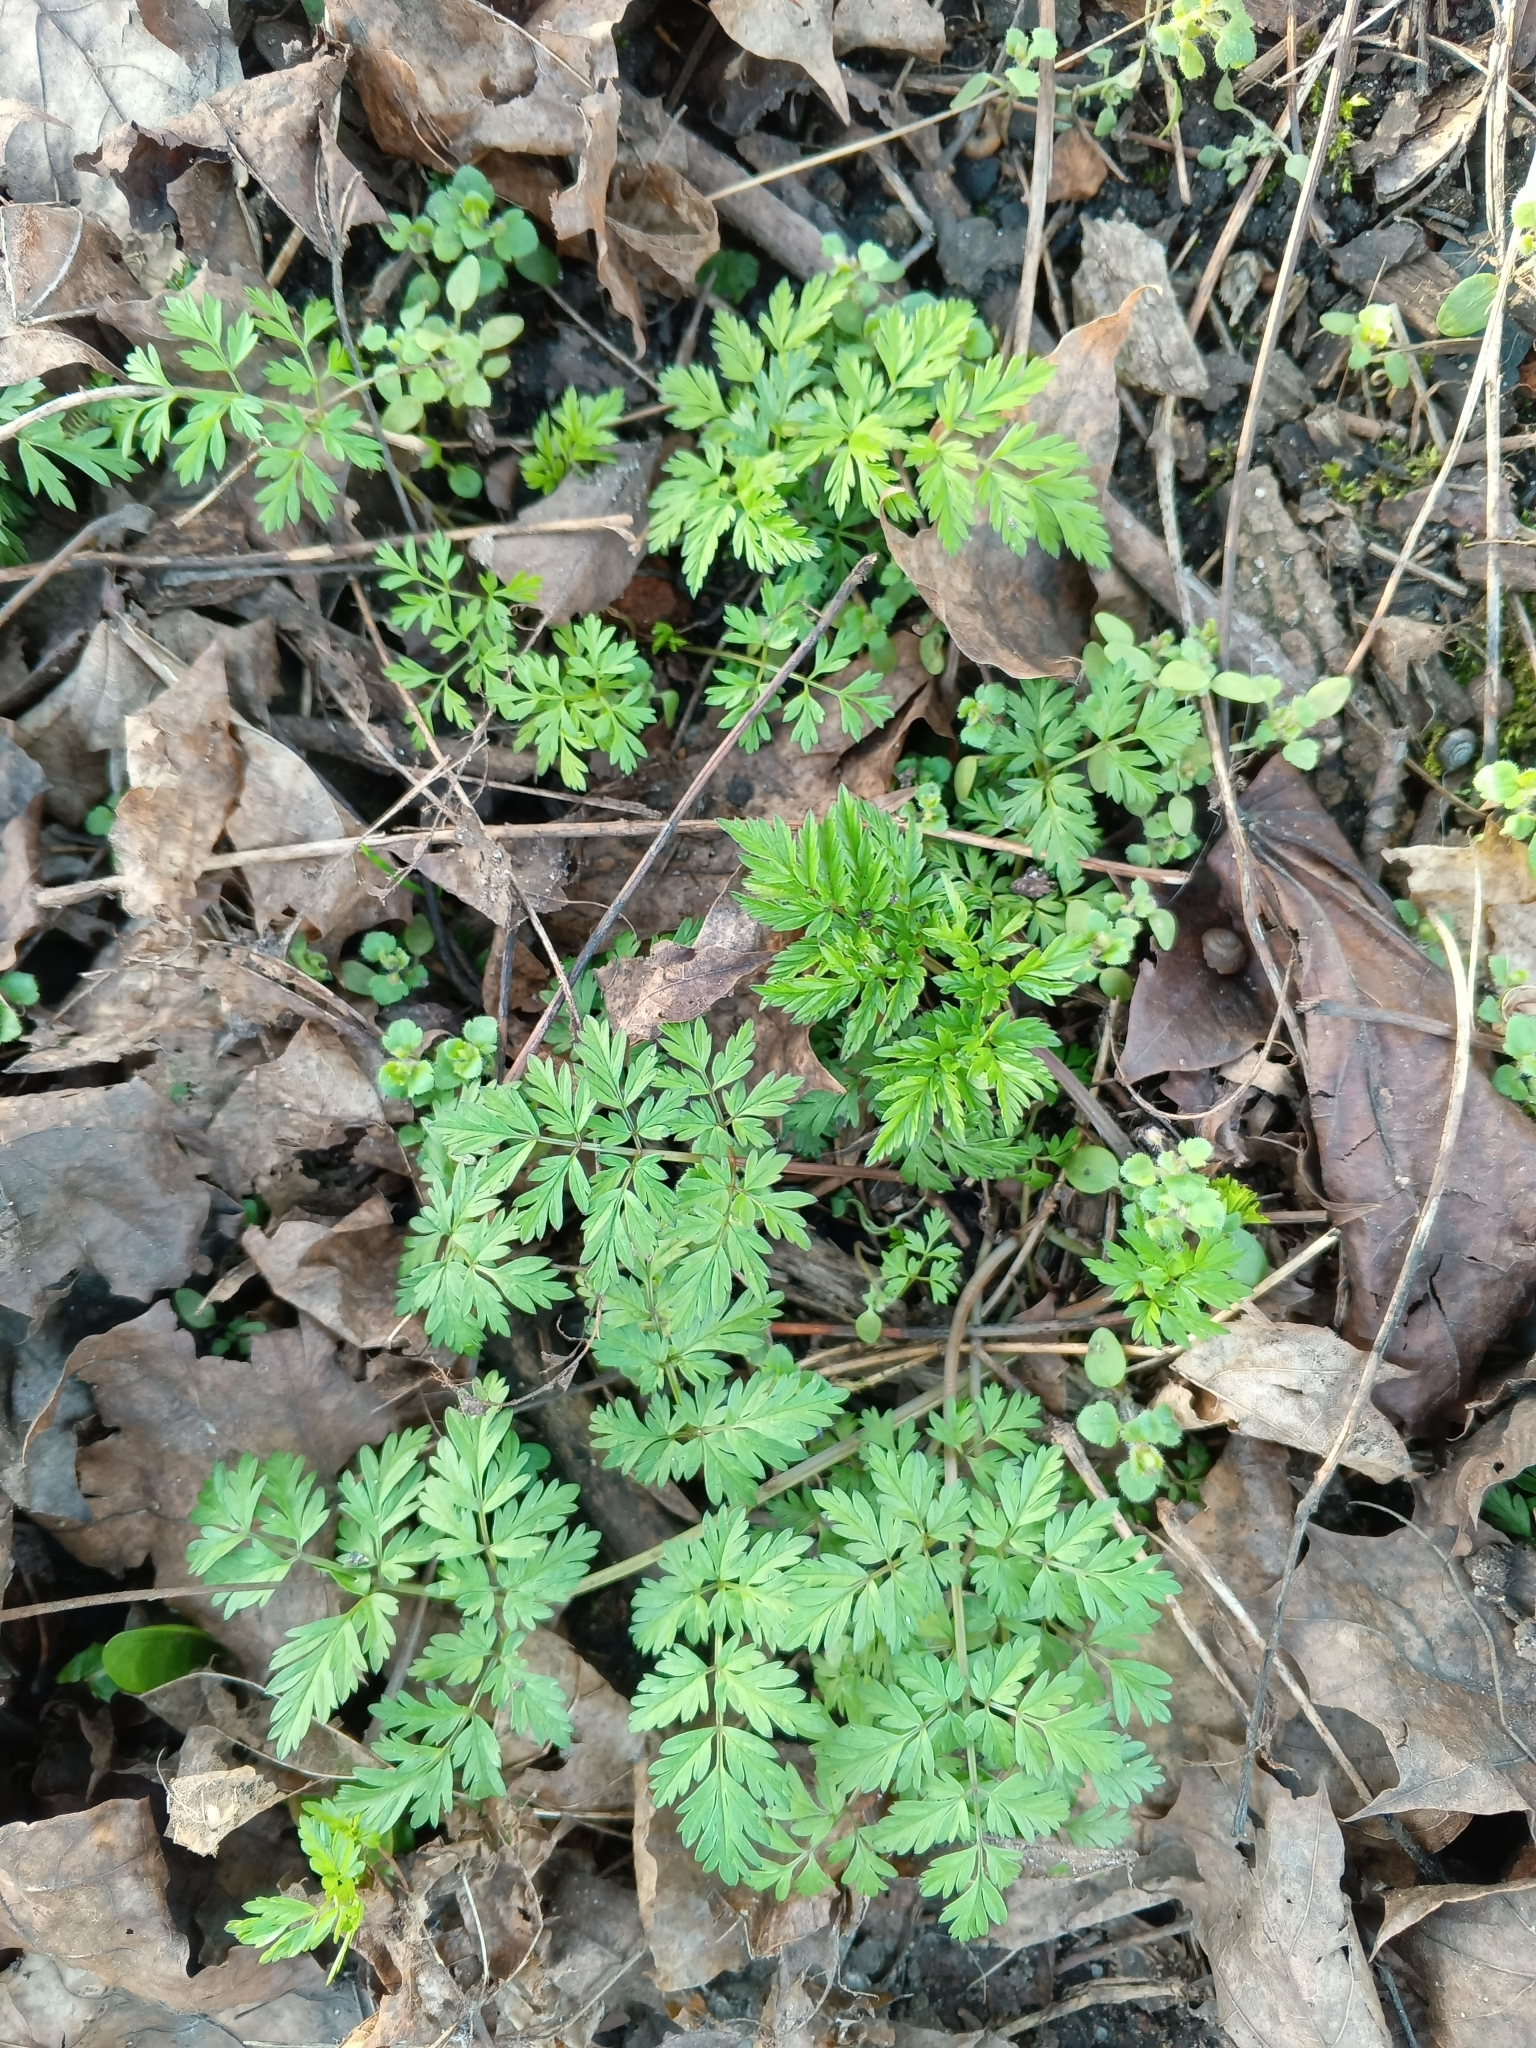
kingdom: Plantae
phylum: Tracheophyta
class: Magnoliopsida
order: Apiales
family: Apiaceae
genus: Anthriscus
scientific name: Anthriscus sylvestris
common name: Cow parsley
